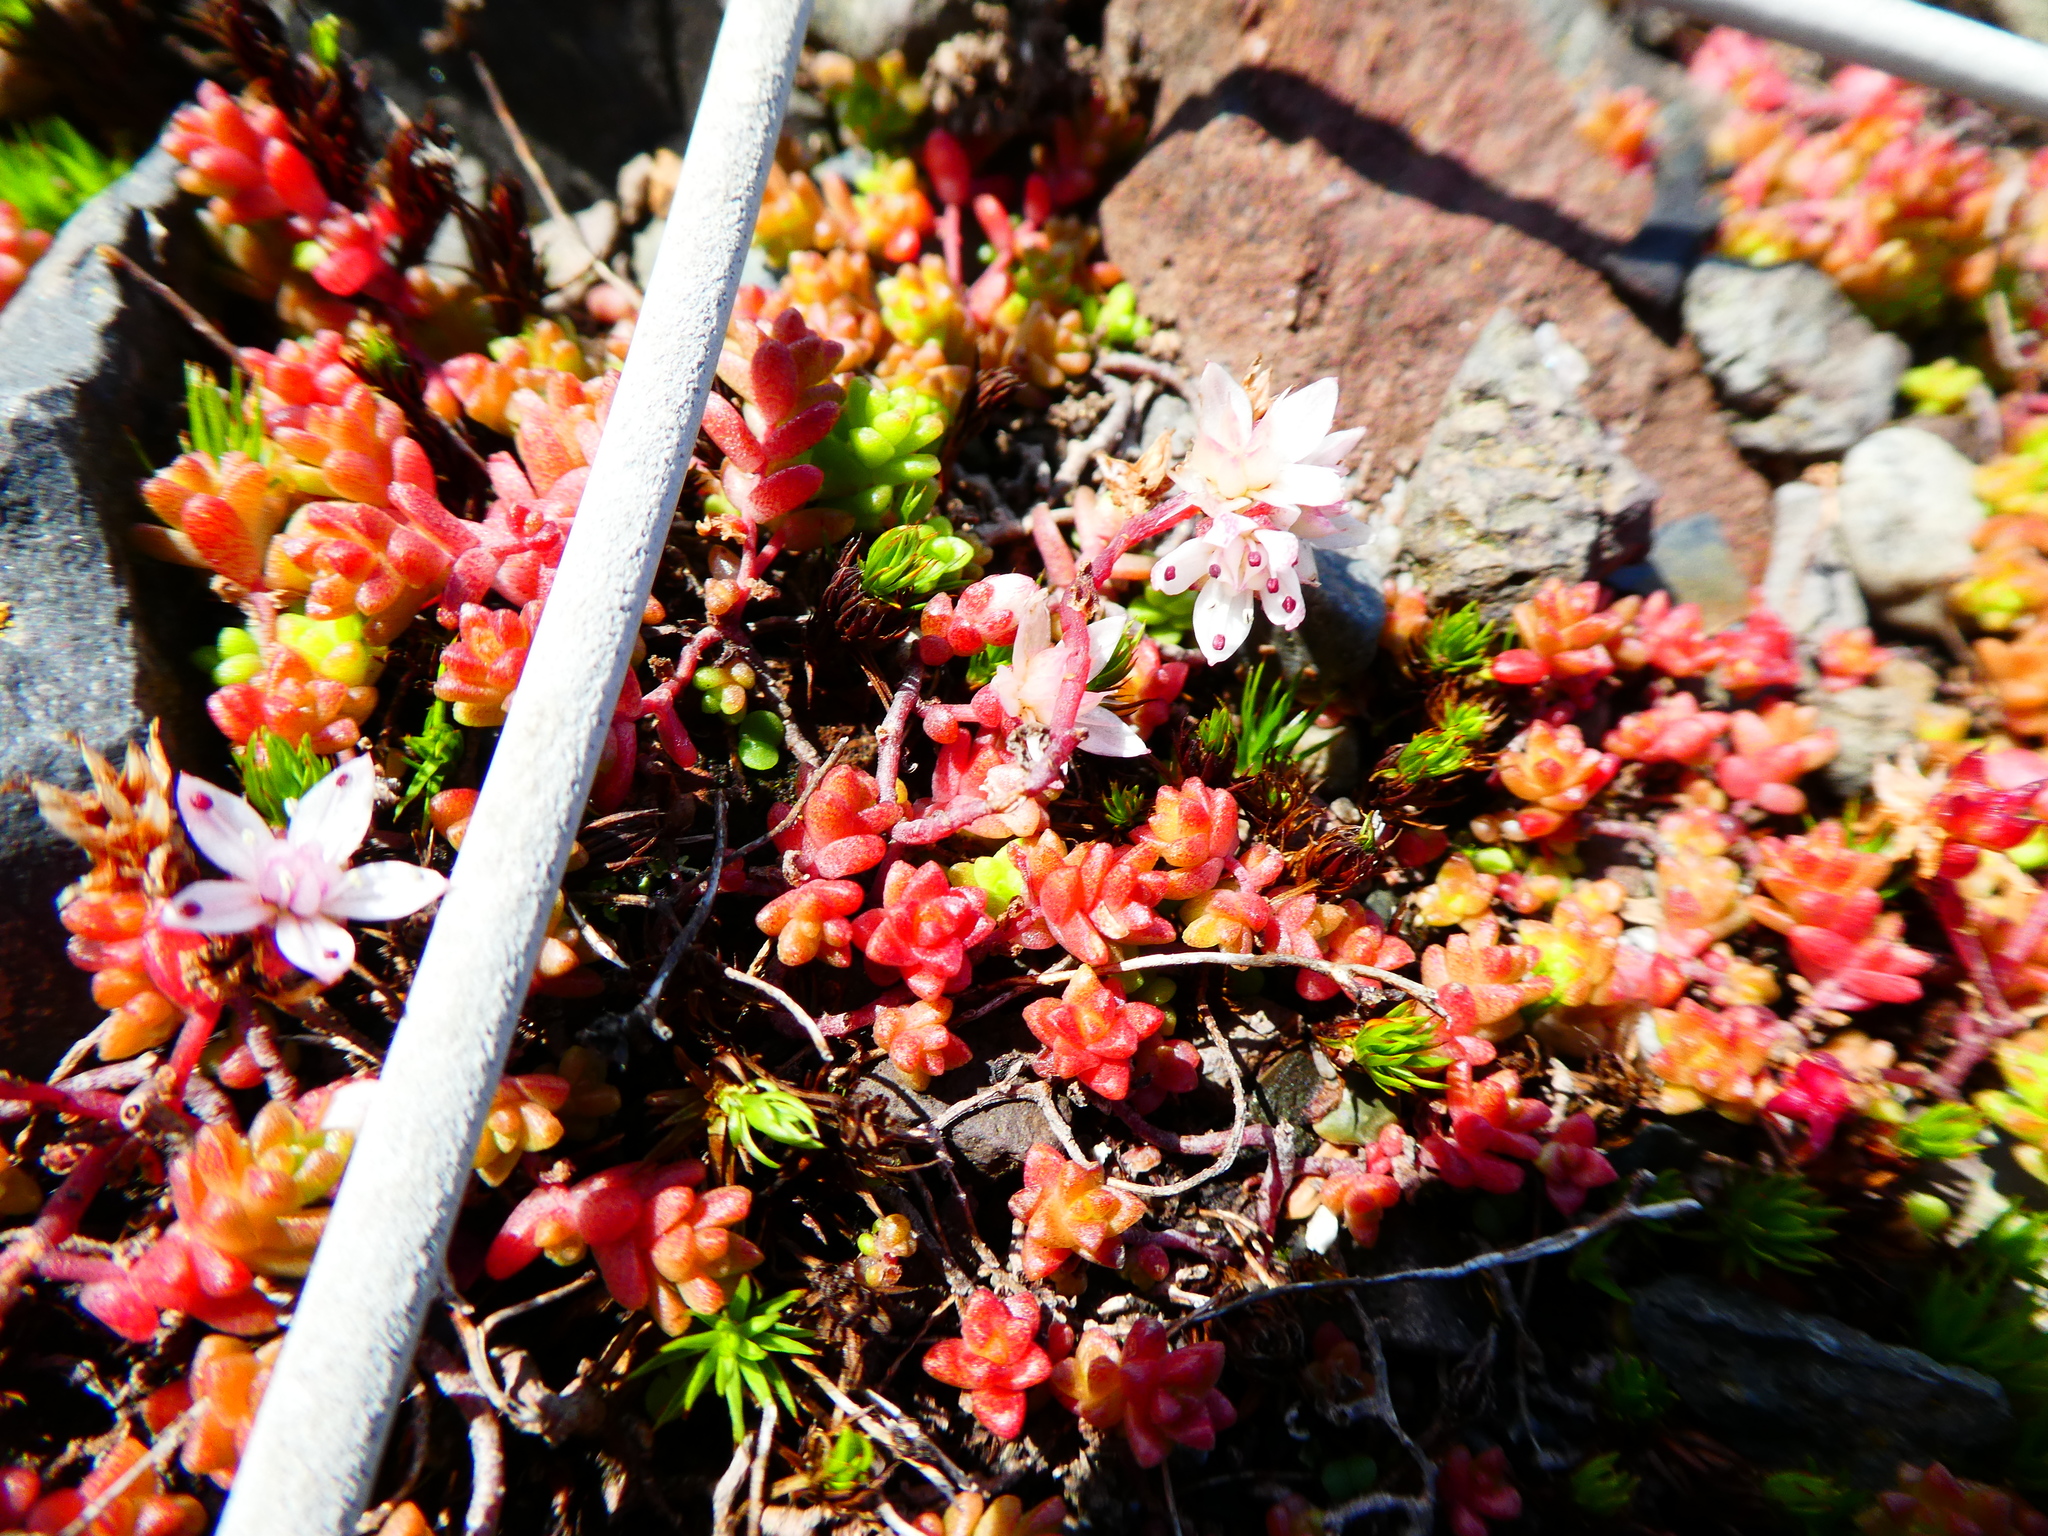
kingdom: Plantae
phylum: Tracheophyta
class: Magnoliopsida
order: Saxifragales
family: Crassulaceae
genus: Sedum
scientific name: Sedum anglicum
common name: English stonecrop
